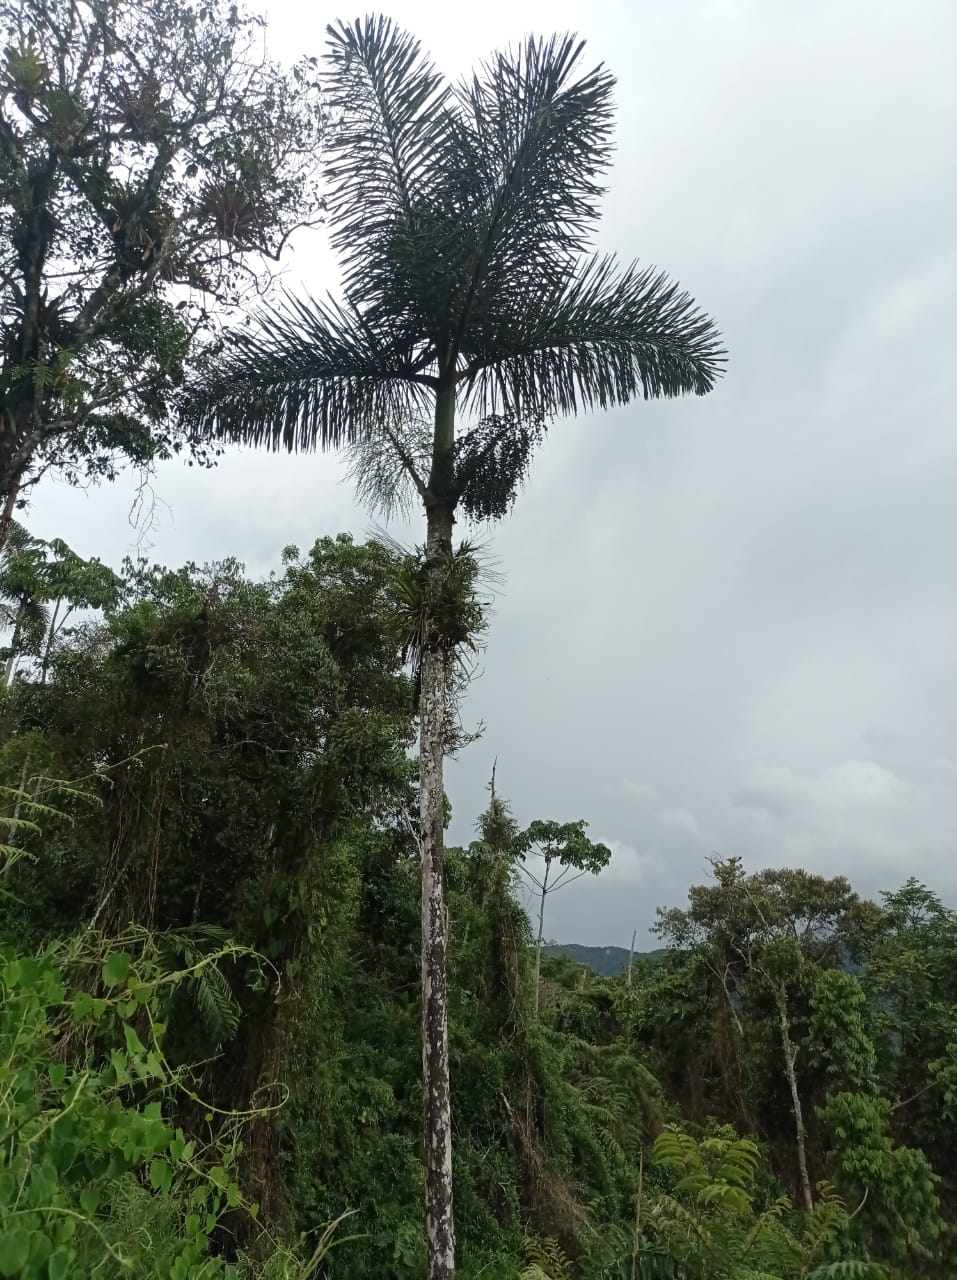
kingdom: Plantae
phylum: Tracheophyta
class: Liliopsida
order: Arecales
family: Arecaceae
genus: Dictyocaryum
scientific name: Dictyocaryum lamarckianum
